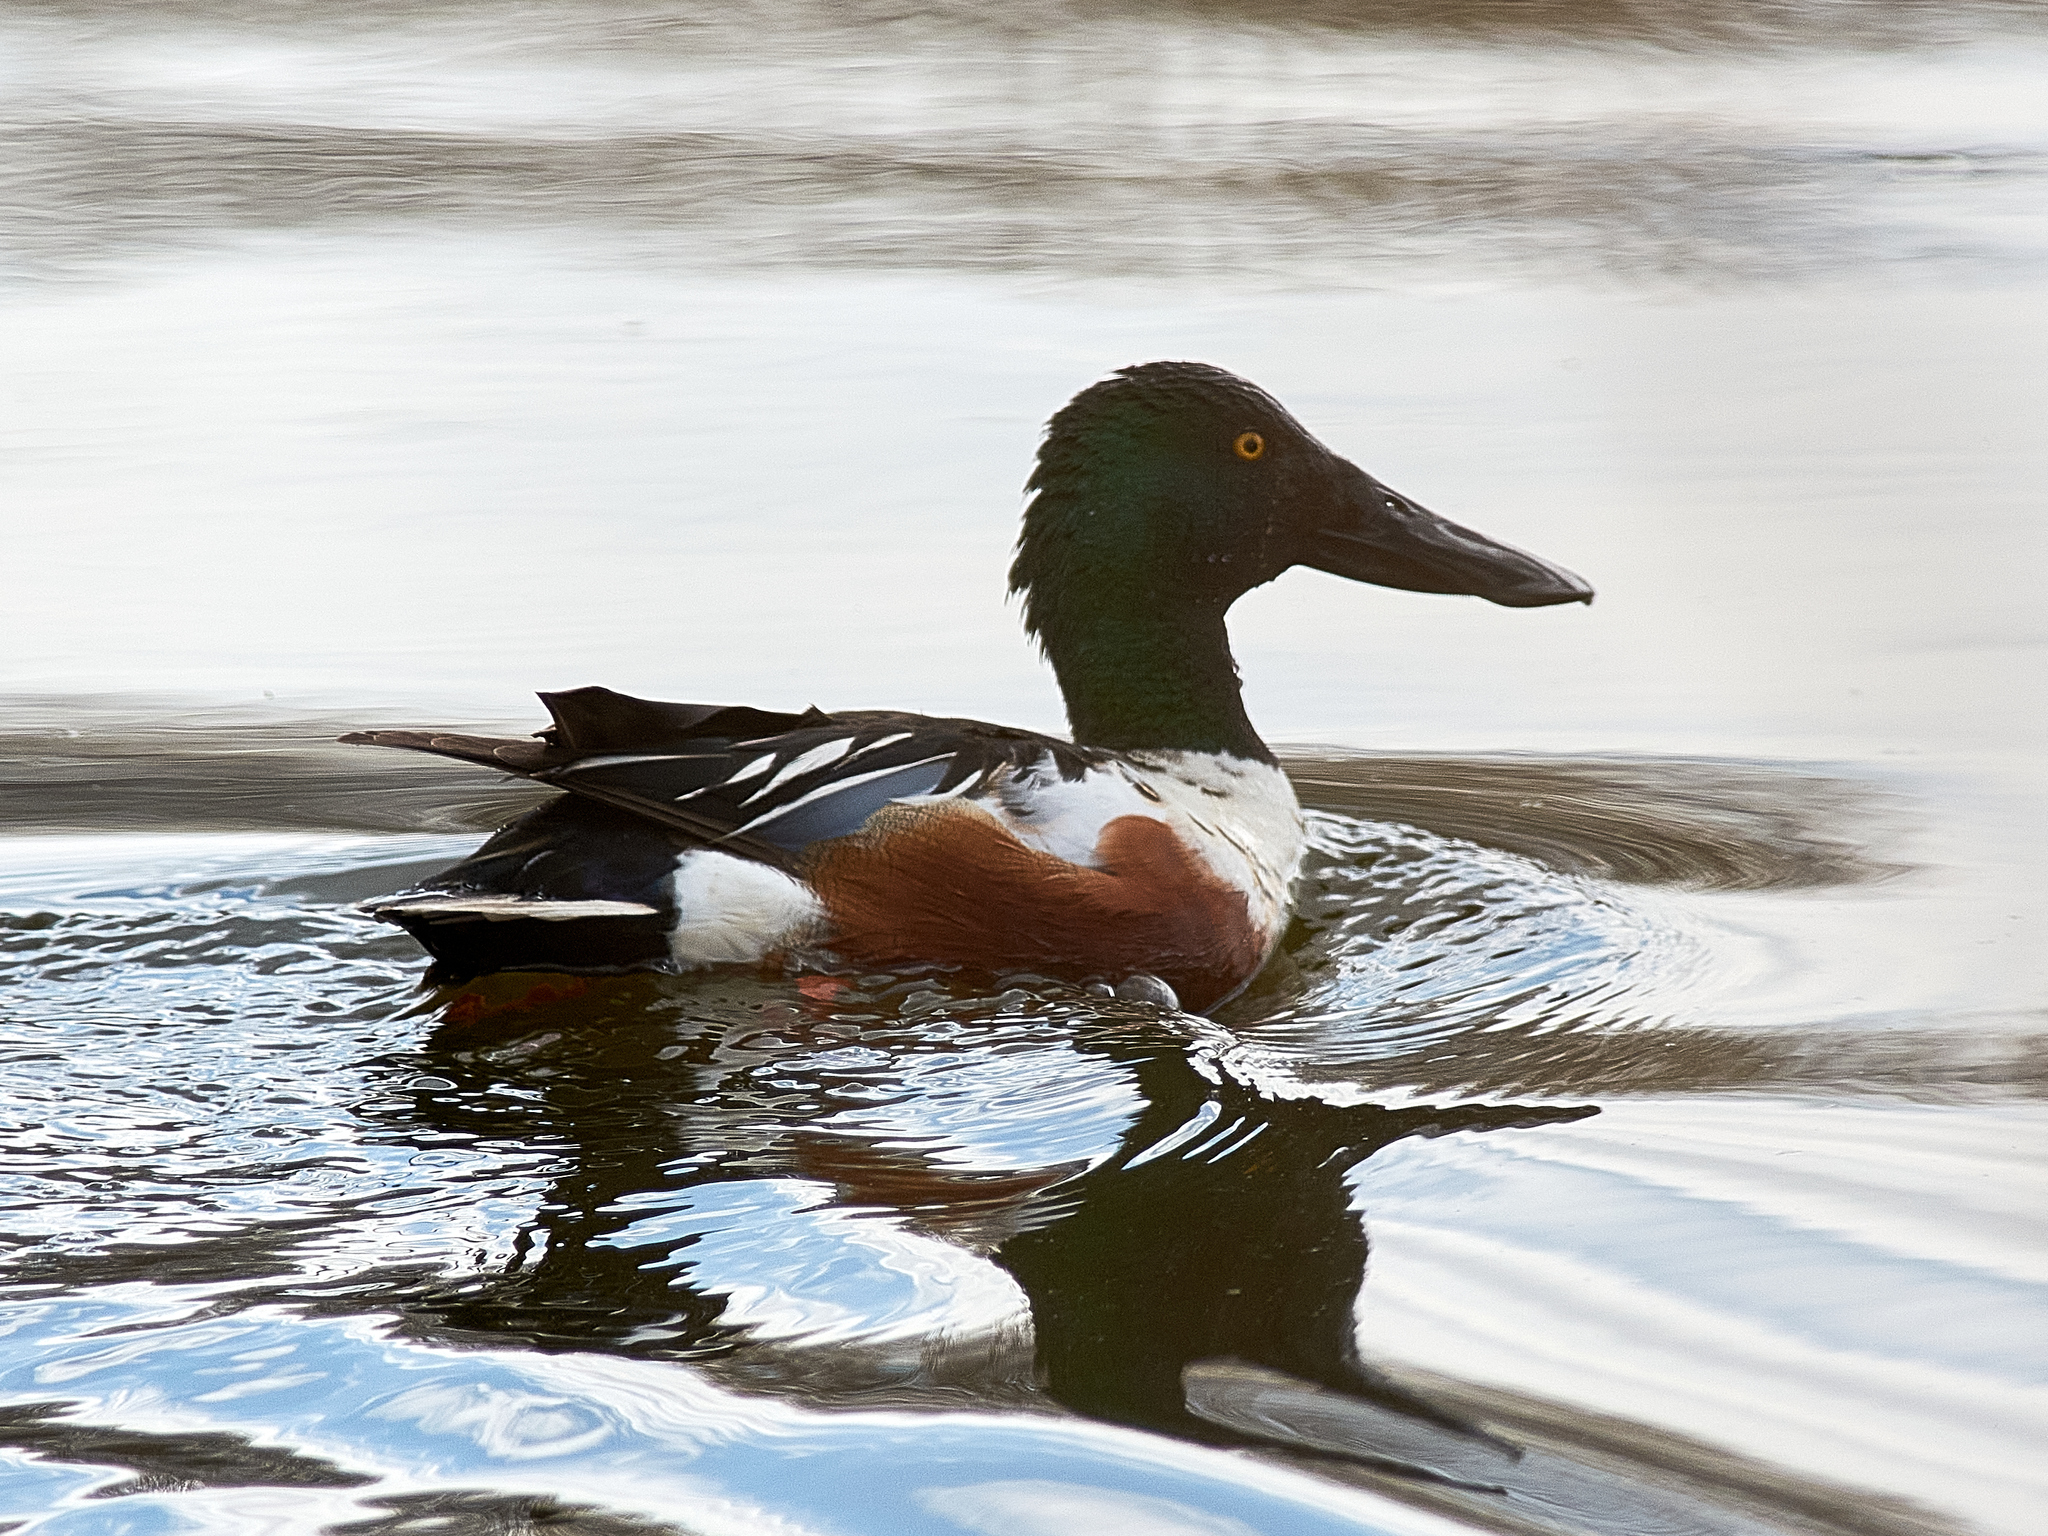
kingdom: Animalia
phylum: Chordata
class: Aves
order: Anseriformes
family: Anatidae
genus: Spatula
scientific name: Spatula clypeata
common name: Northern shoveler
